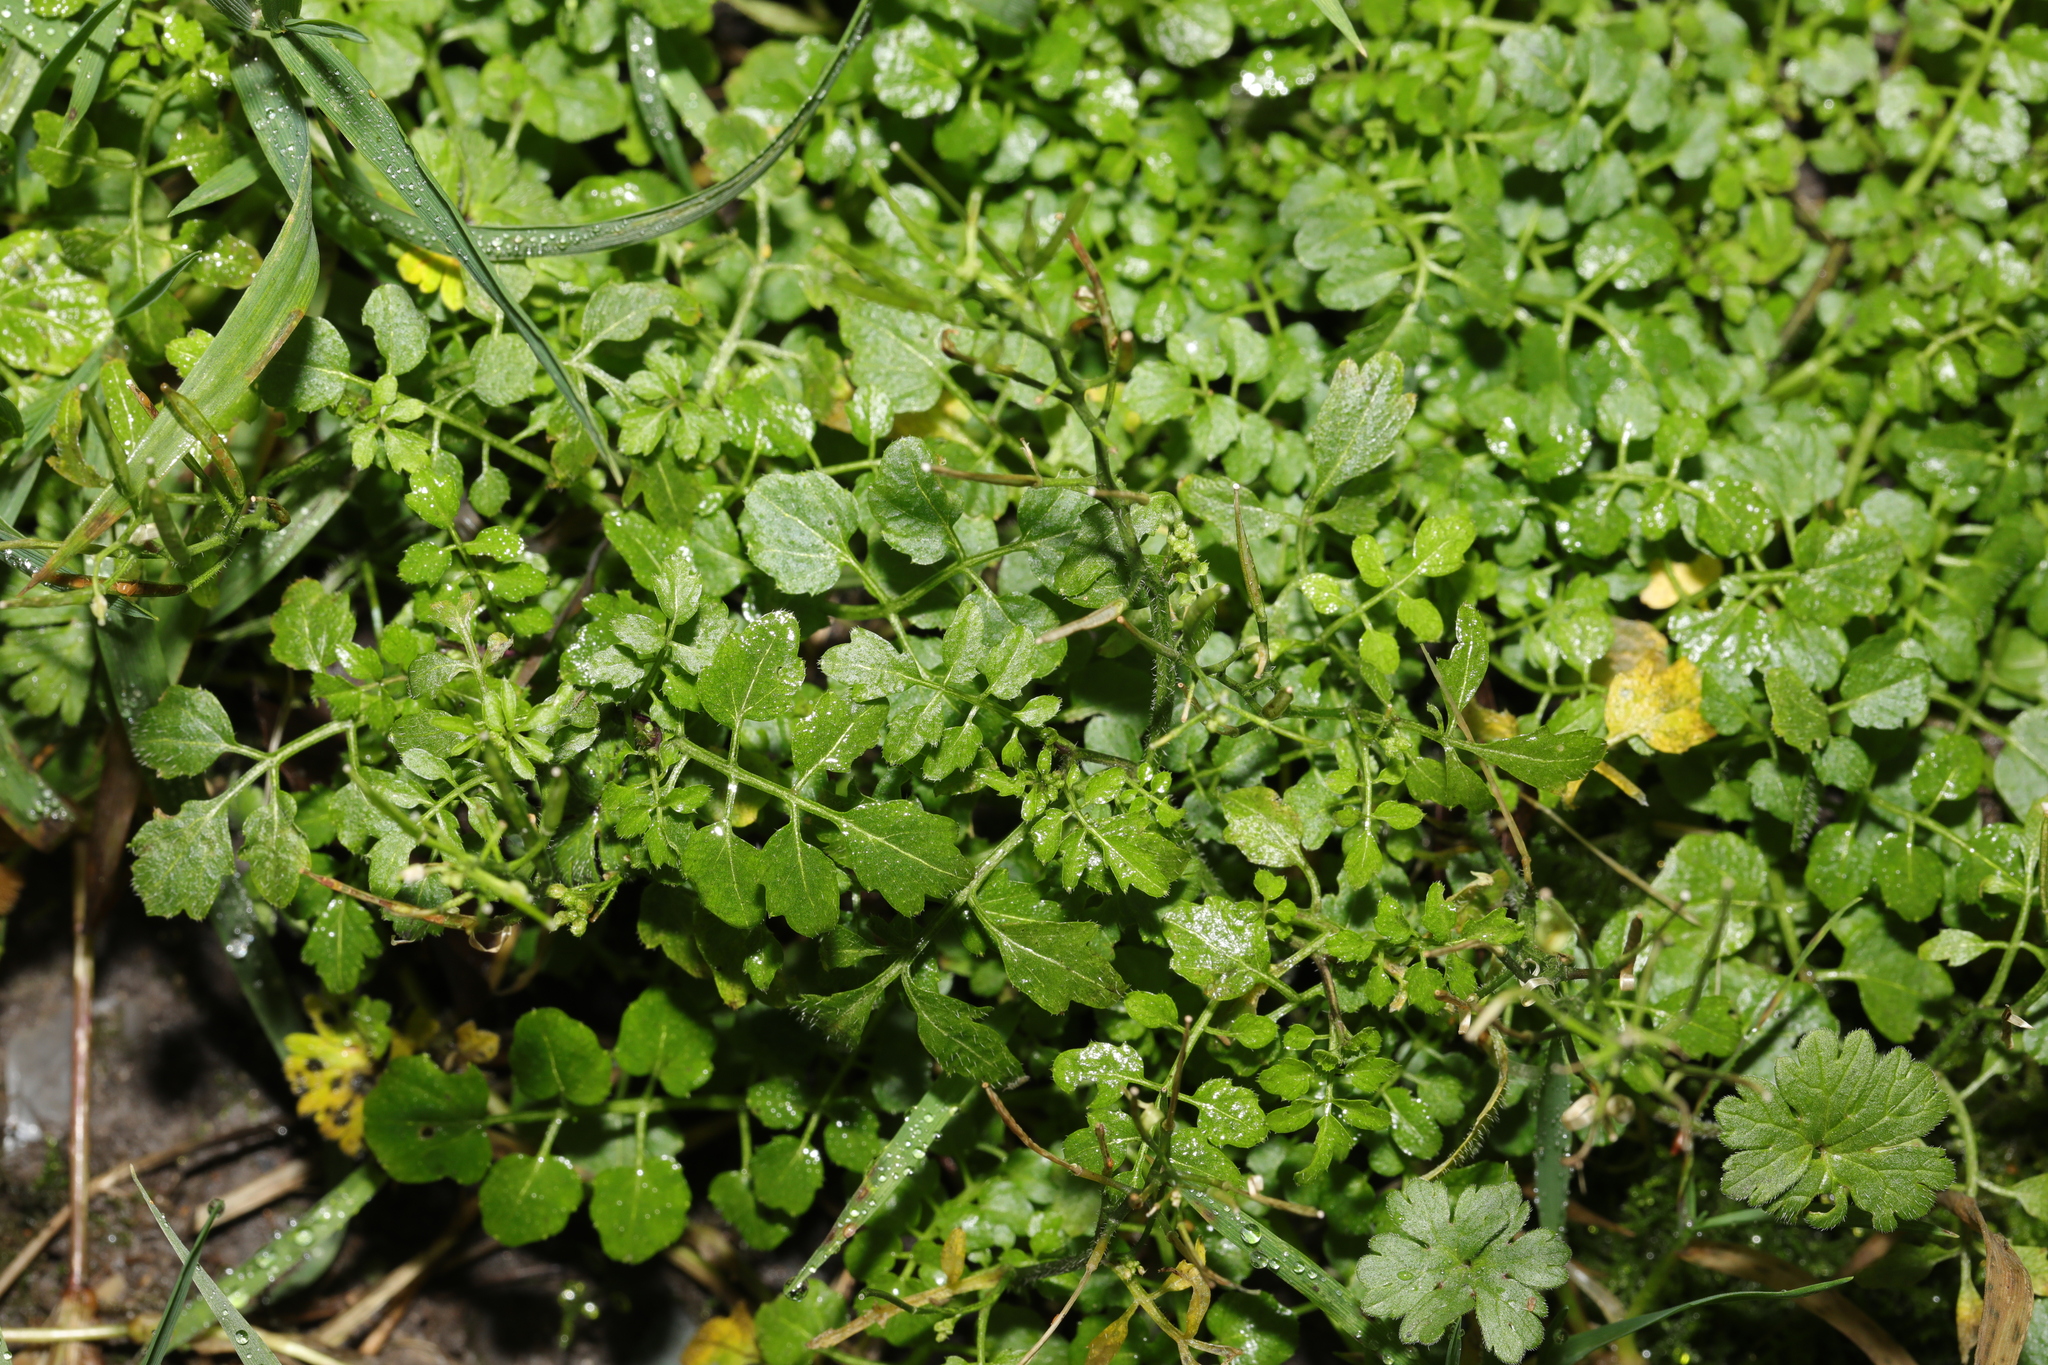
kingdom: Plantae
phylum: Tracheophyta
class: Magnoliopsida
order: Brassicales
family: Brassicaceae
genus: Cardamine
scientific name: Cardamine flexuosa
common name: Woodland bittercress
